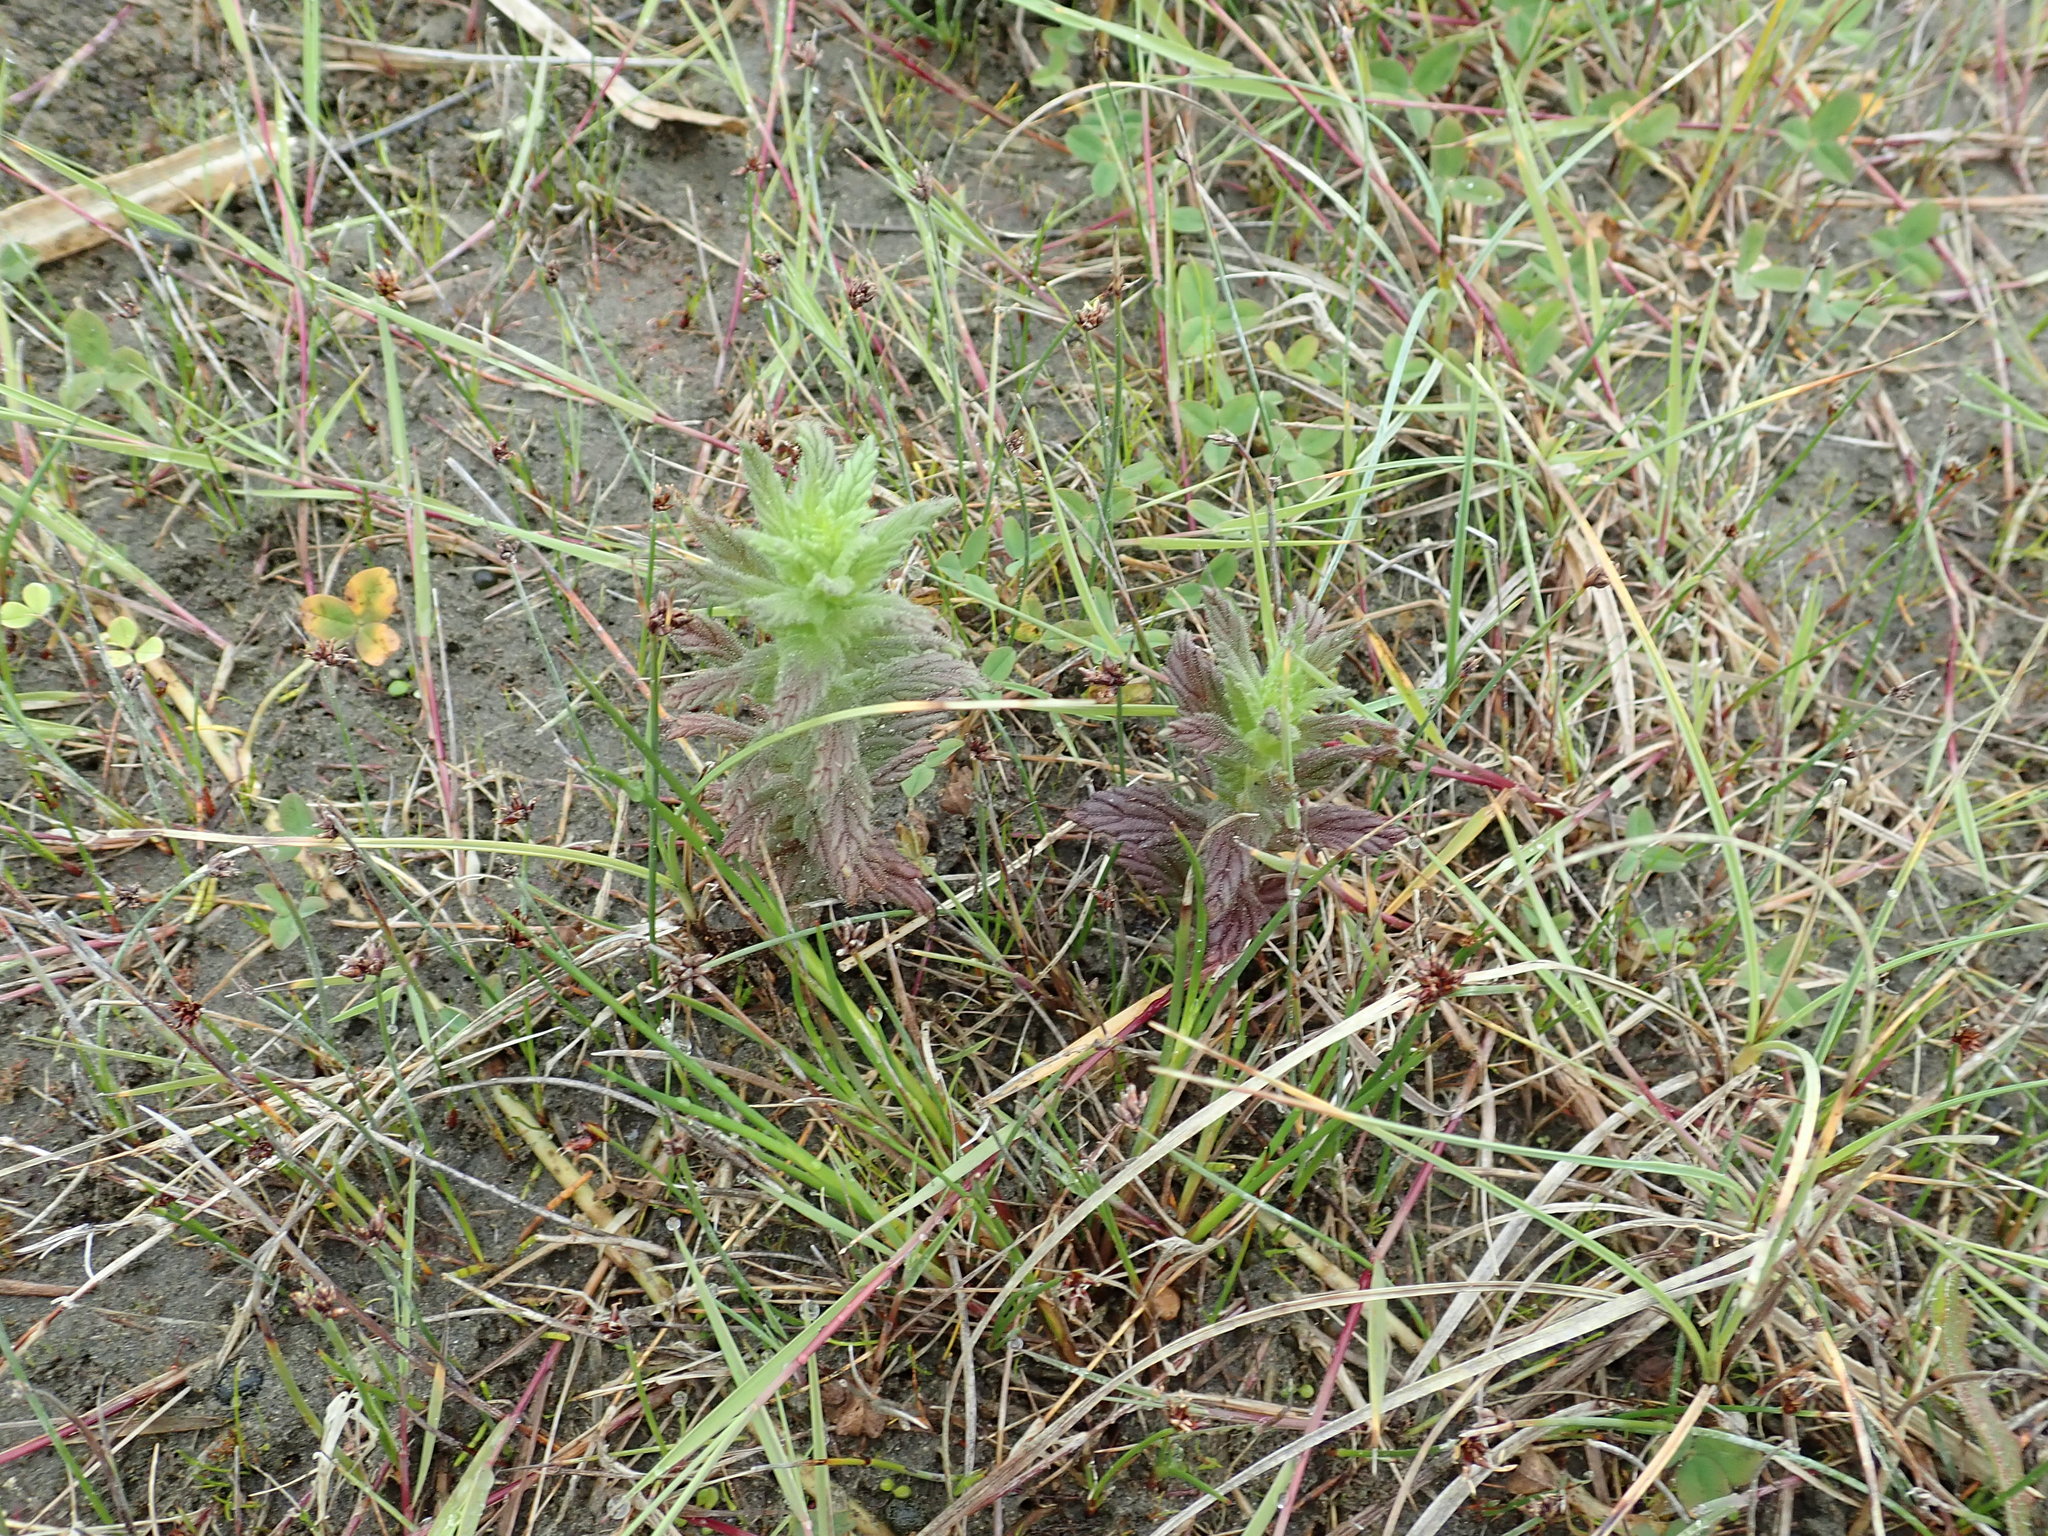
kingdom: Plantae
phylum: Tracheophyta
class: Magnoliopsida
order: Lamiales
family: Orobanchaceae
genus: Bellardia
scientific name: Bellardia viscosa
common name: Sticky parentucellia
